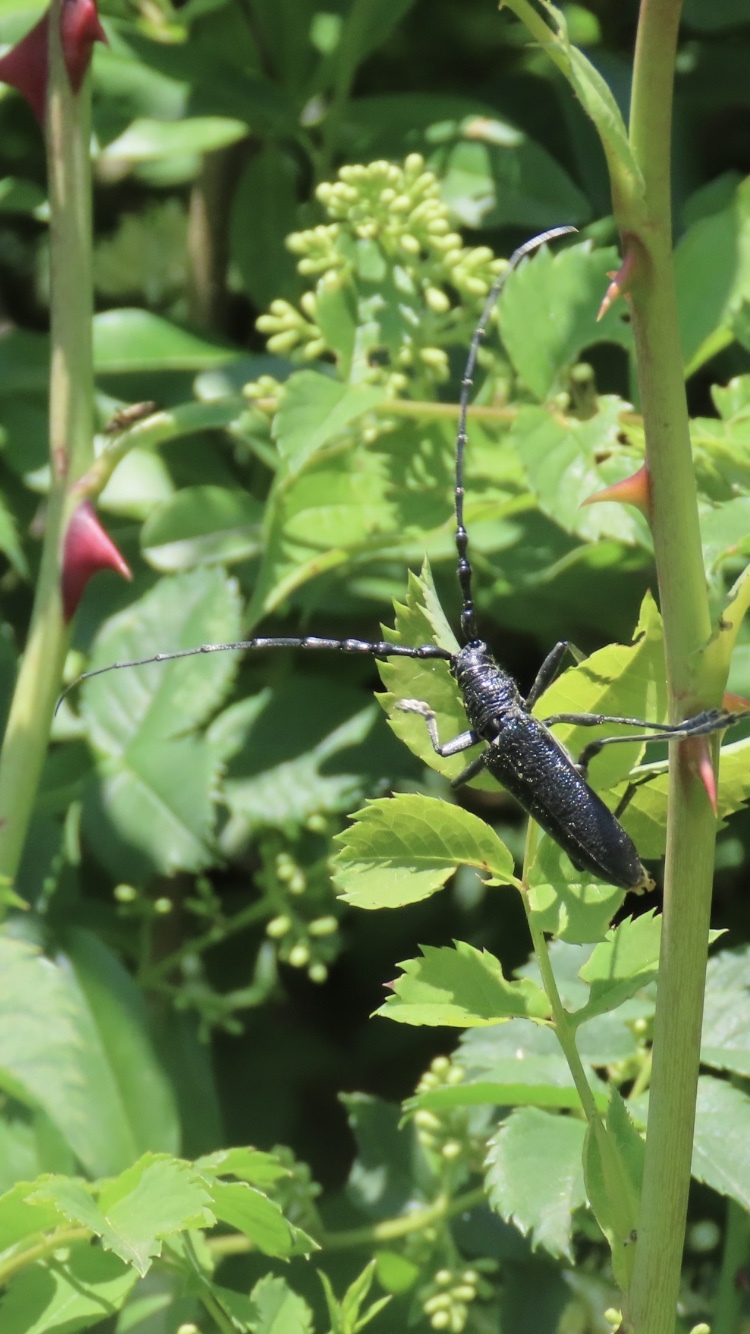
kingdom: Animalia
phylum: Arthropoda
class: Insecta
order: Coleoptera
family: Cerambycidae
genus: Cerambyx
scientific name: Cerambyx scopolii
